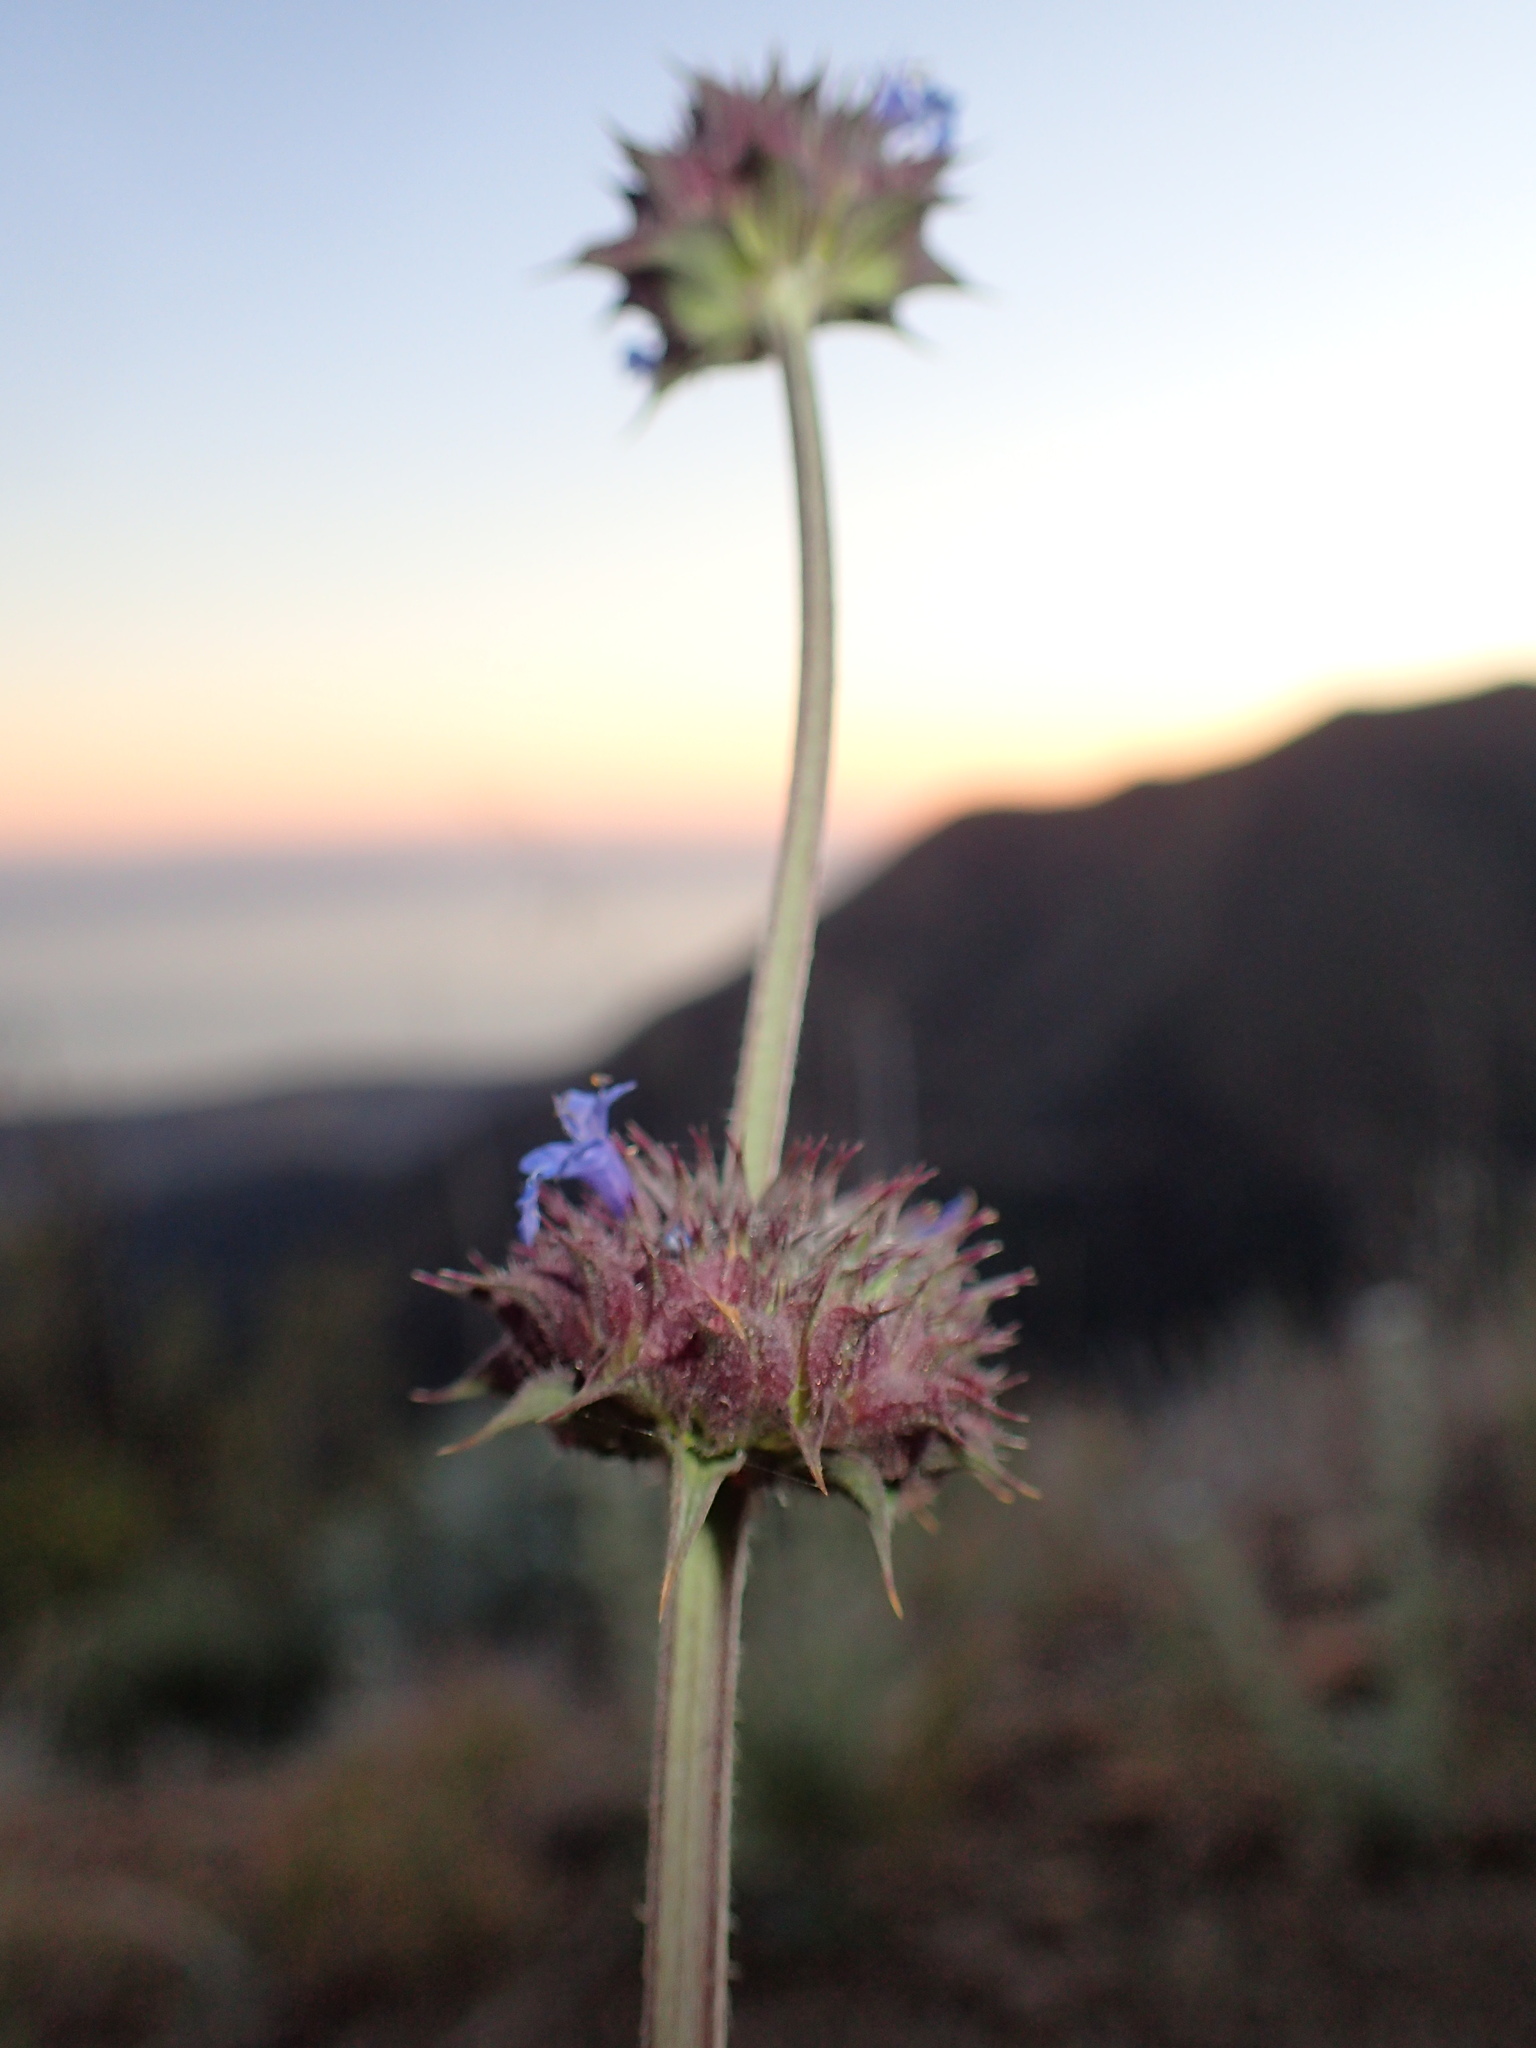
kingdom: Plantae
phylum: Tracheophyta
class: Magnoliopsida
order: Lamiales
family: Lamiaceae
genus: Salvia
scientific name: Salvia columbariae
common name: Chia
